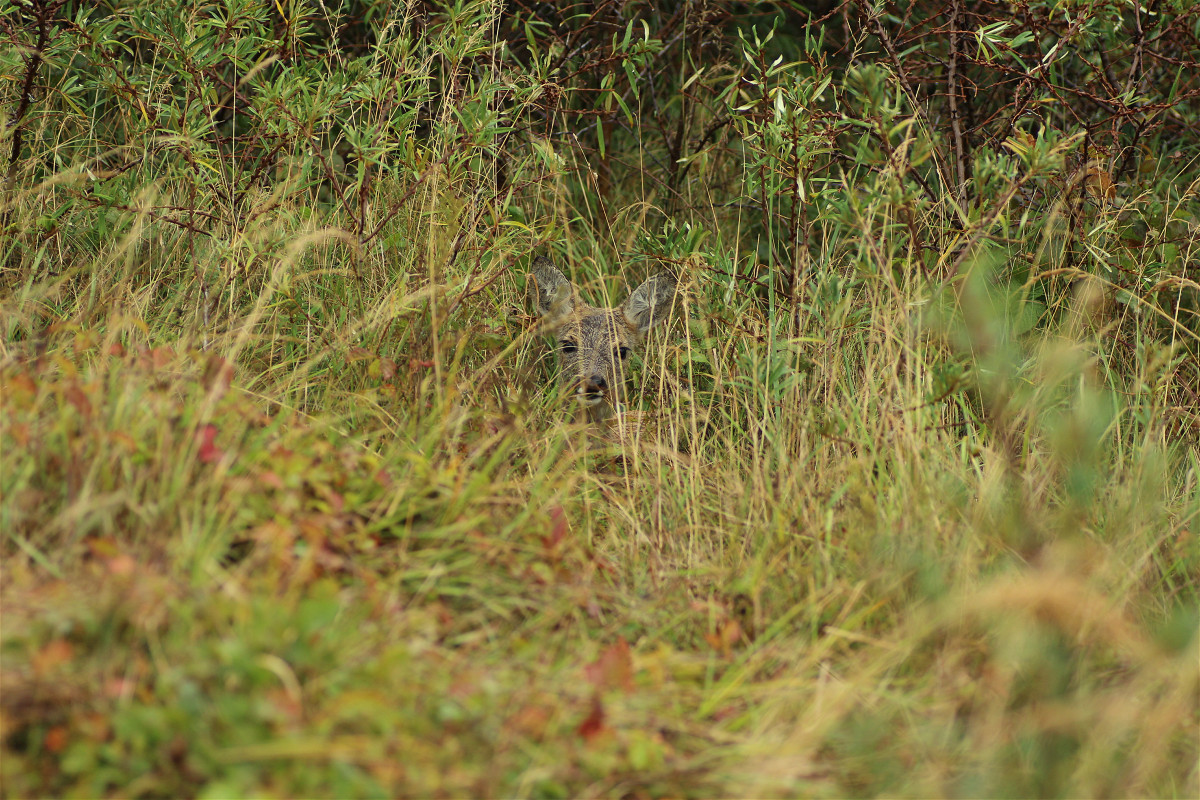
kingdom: Animalia
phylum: Chordata
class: Mammalia
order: Artiodactyla
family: Cervidae
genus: Capreolus
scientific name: Capreolus capreolus
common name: Western roe deer
